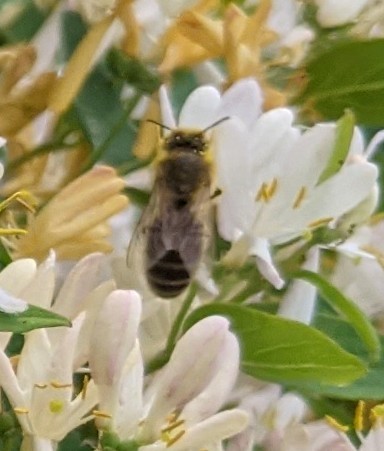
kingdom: Animalia
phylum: Arthropoda
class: Insecta
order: Hymenoptera
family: Apidae
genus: Apis
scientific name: Apis mellifera
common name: Honey bee
